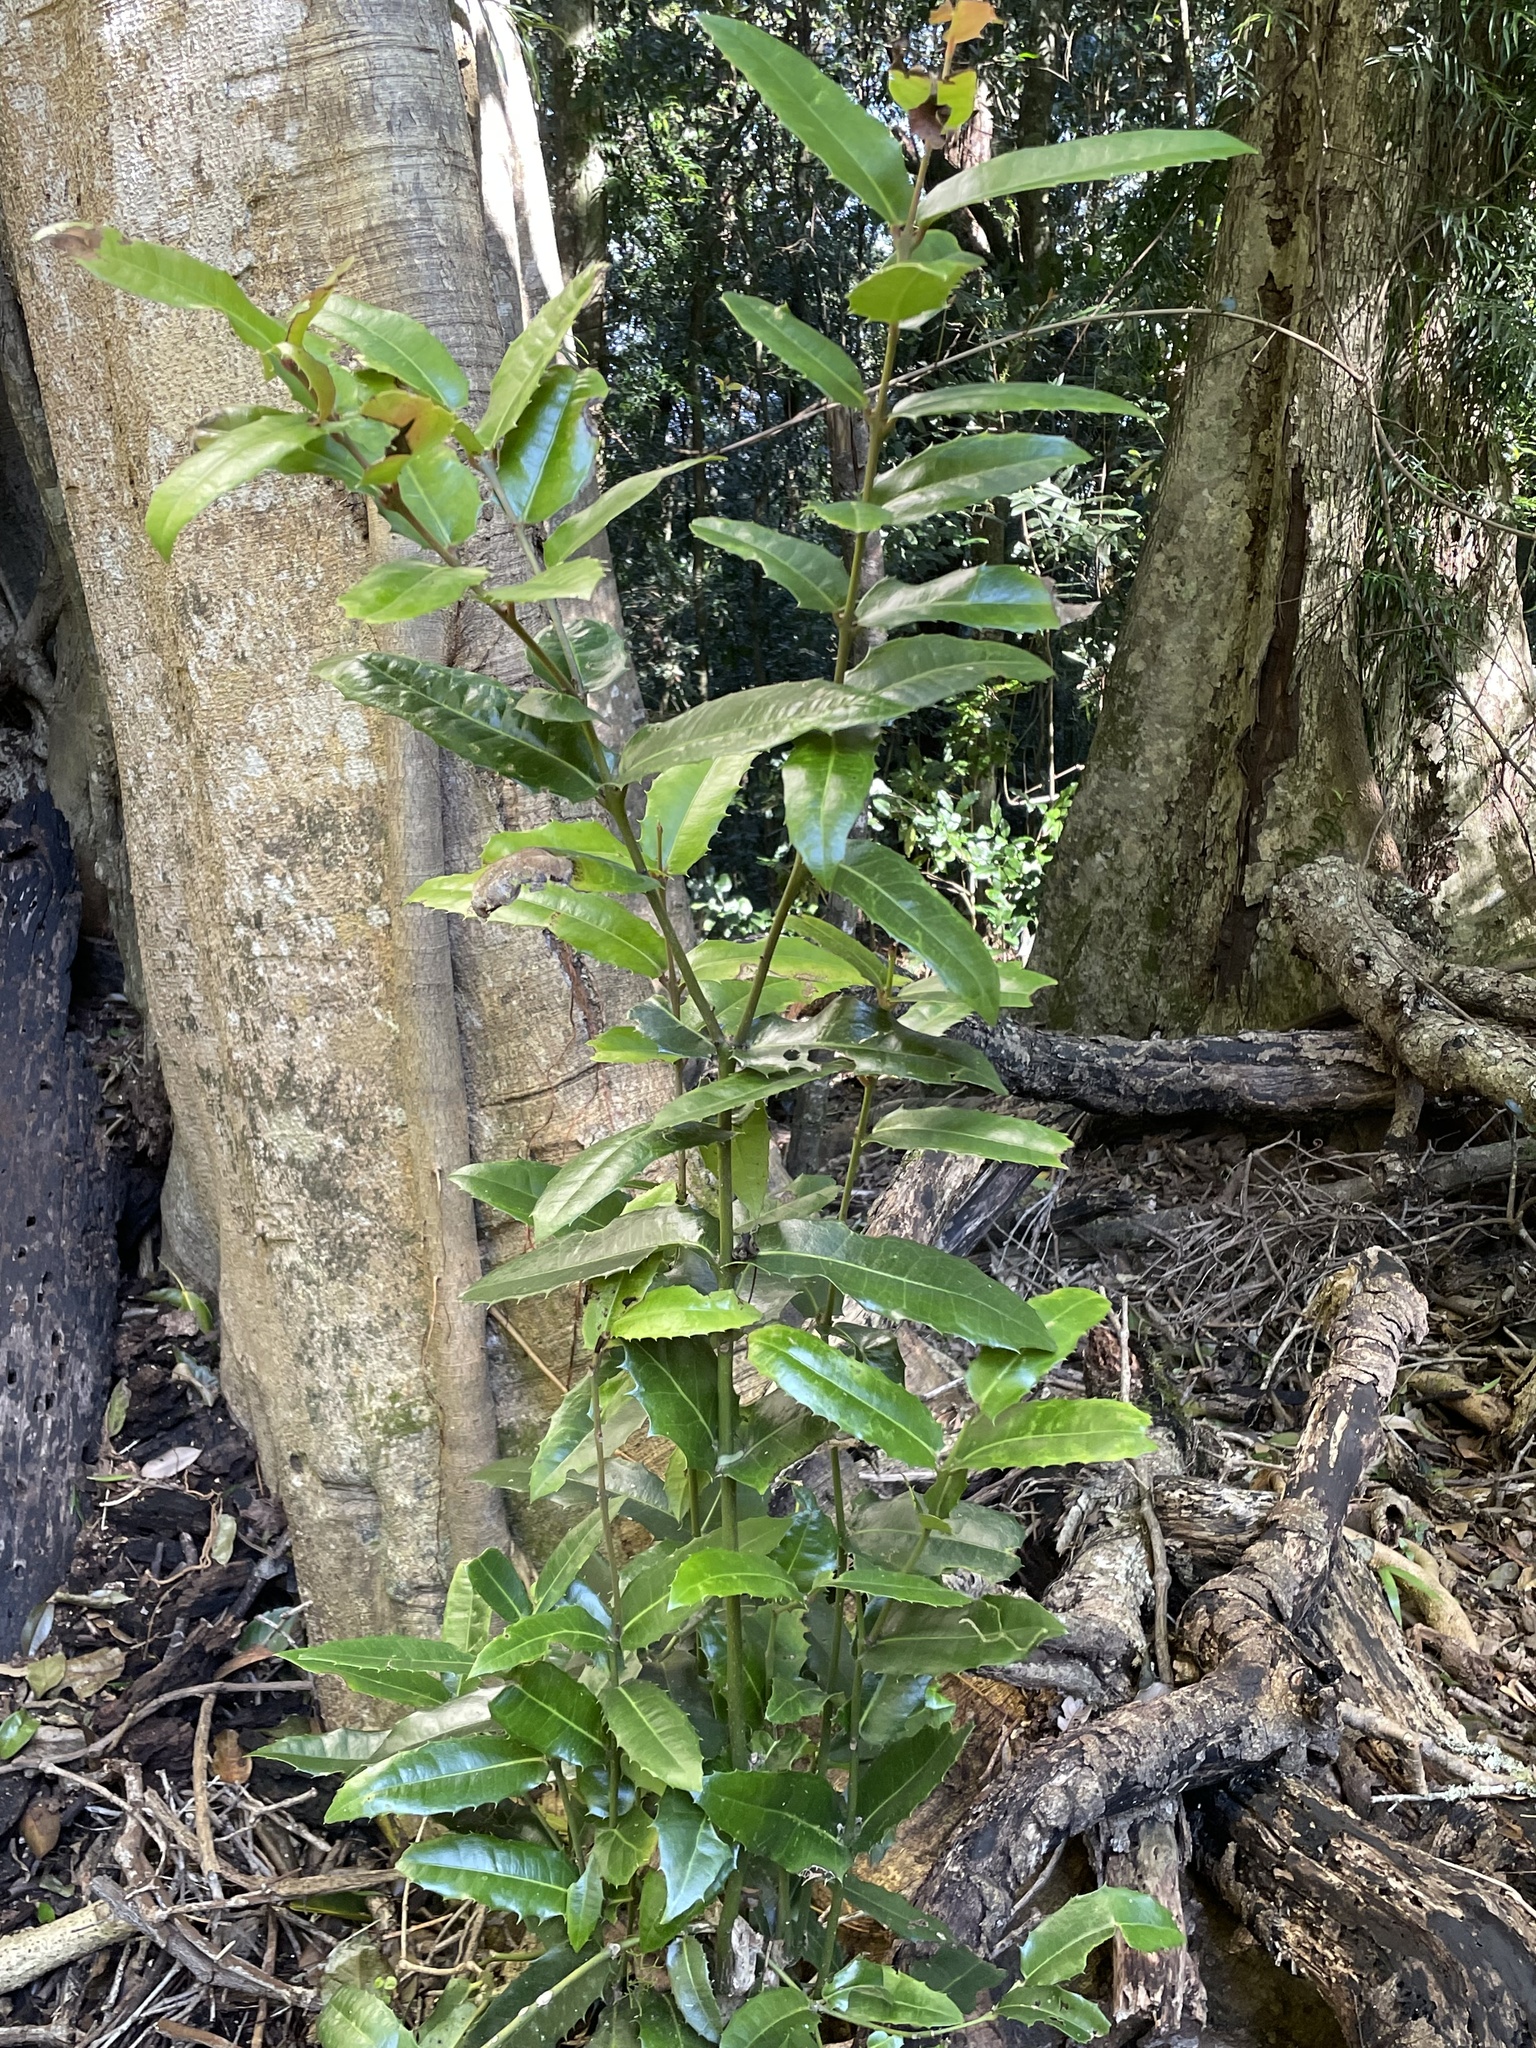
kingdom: Plantae
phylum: Tracheophyta
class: Magnoliopsida
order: Laurales
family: Monimiaceae
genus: Wilkiea
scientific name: Wilkiea macrophylla
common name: Large-leaved wilkiea
